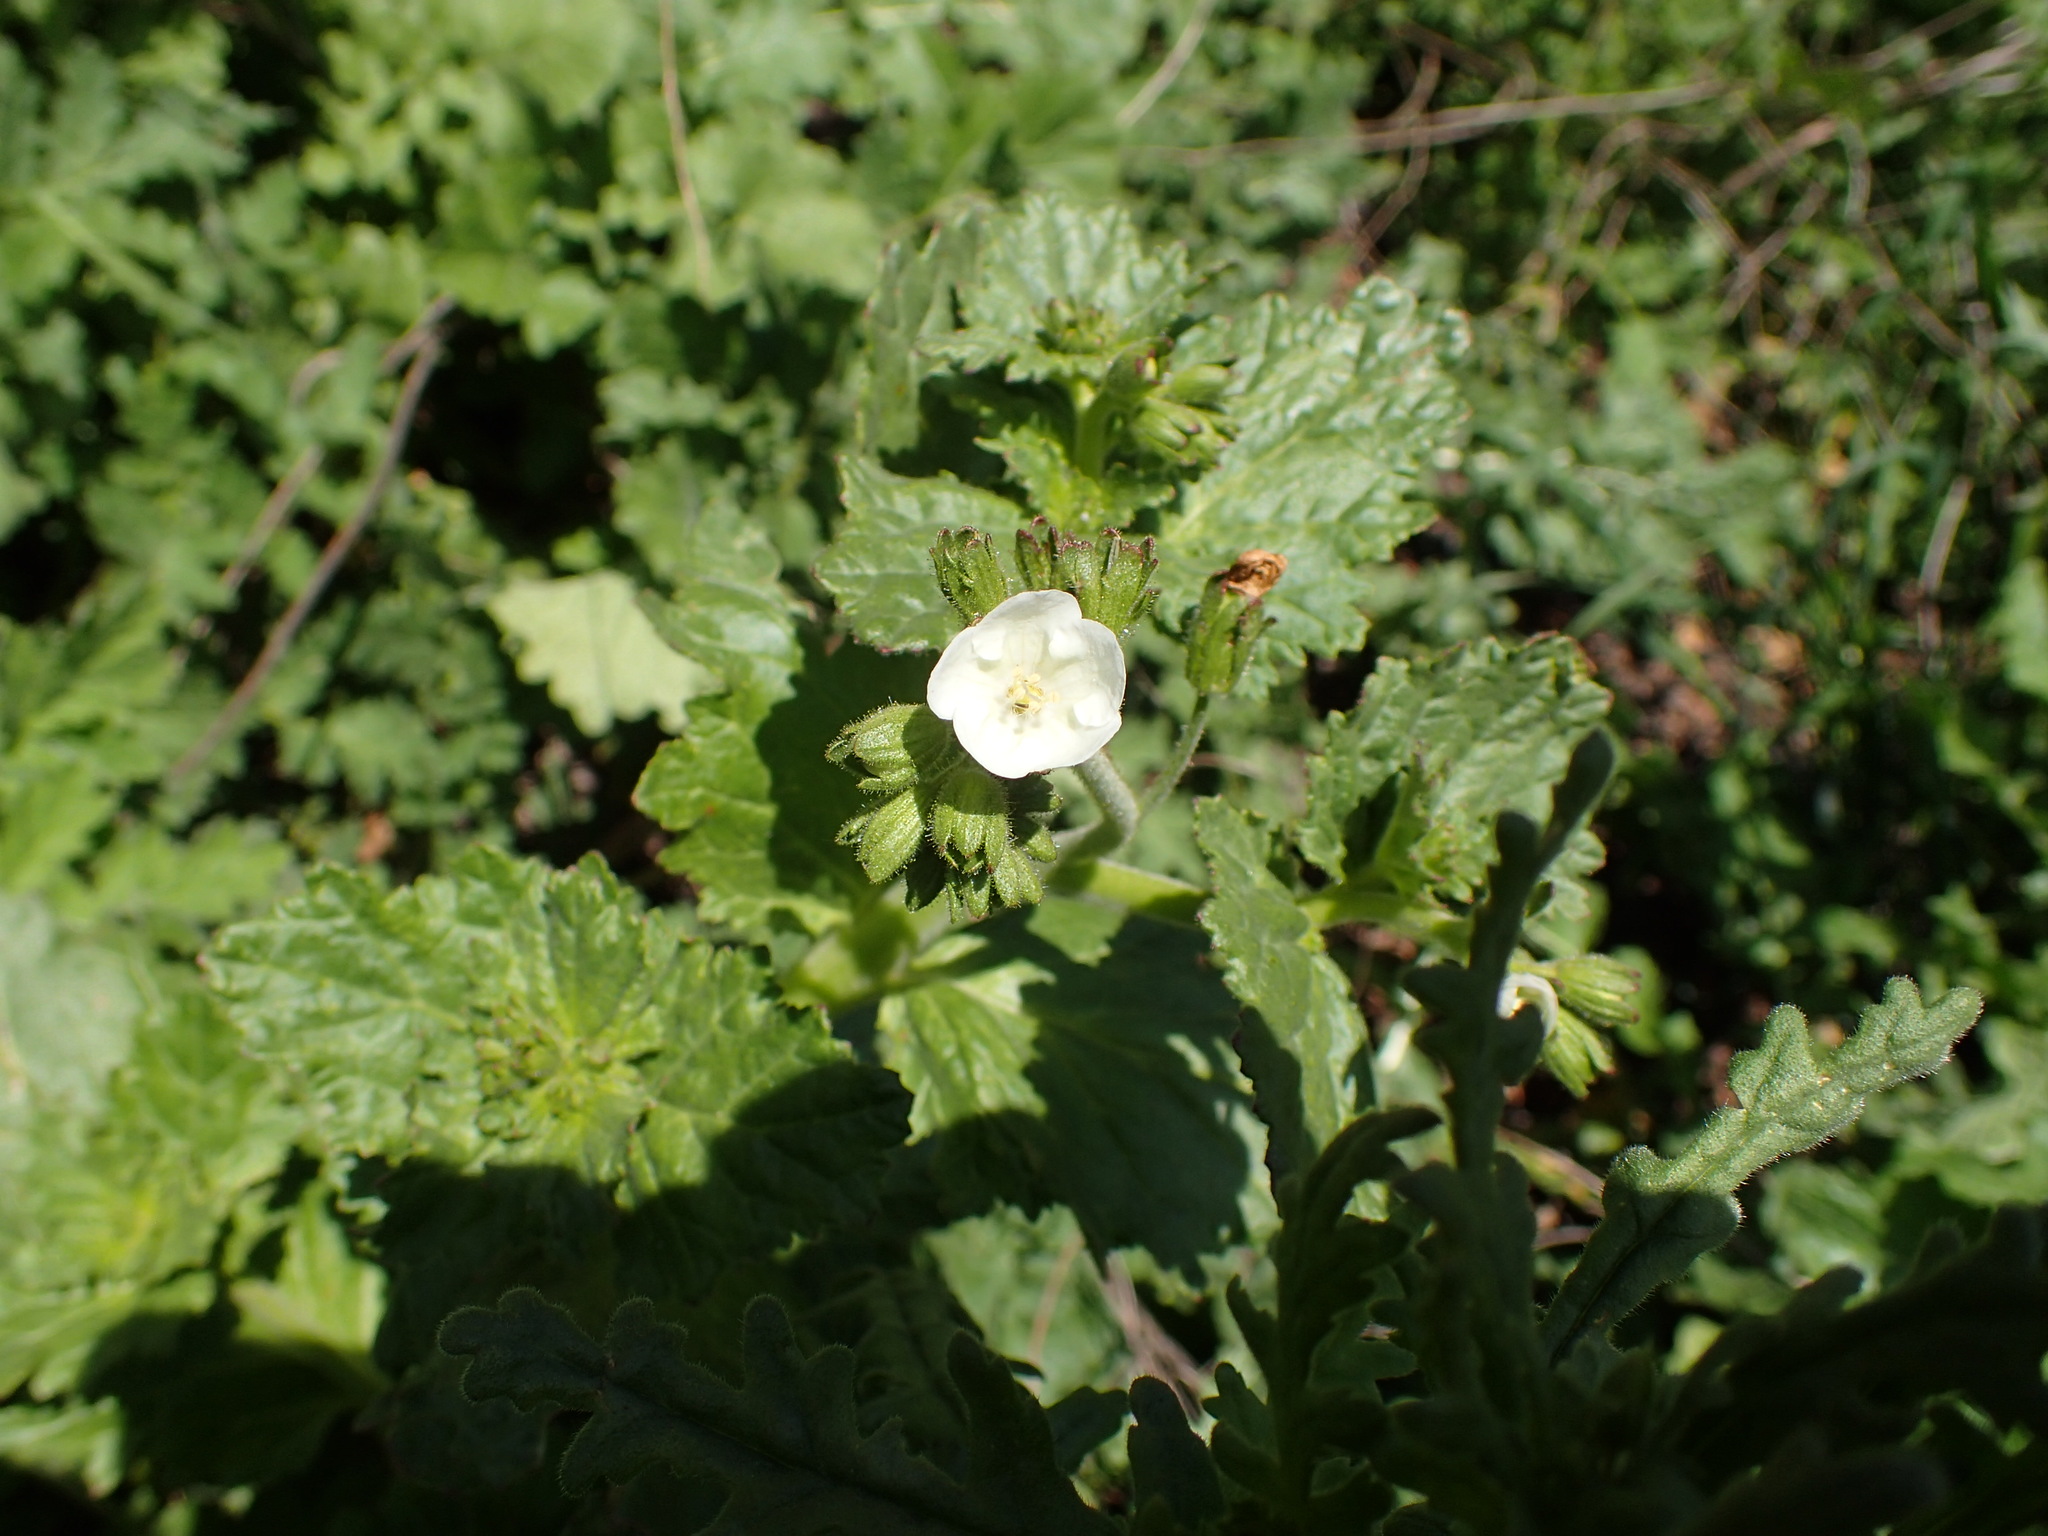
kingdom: Plantae
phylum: Tracheophyta
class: Magnoliopsida
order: Boraginales
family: Hydrophyllaceae
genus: Phacelia
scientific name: Phacelia viscida
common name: Sticky phacelia
